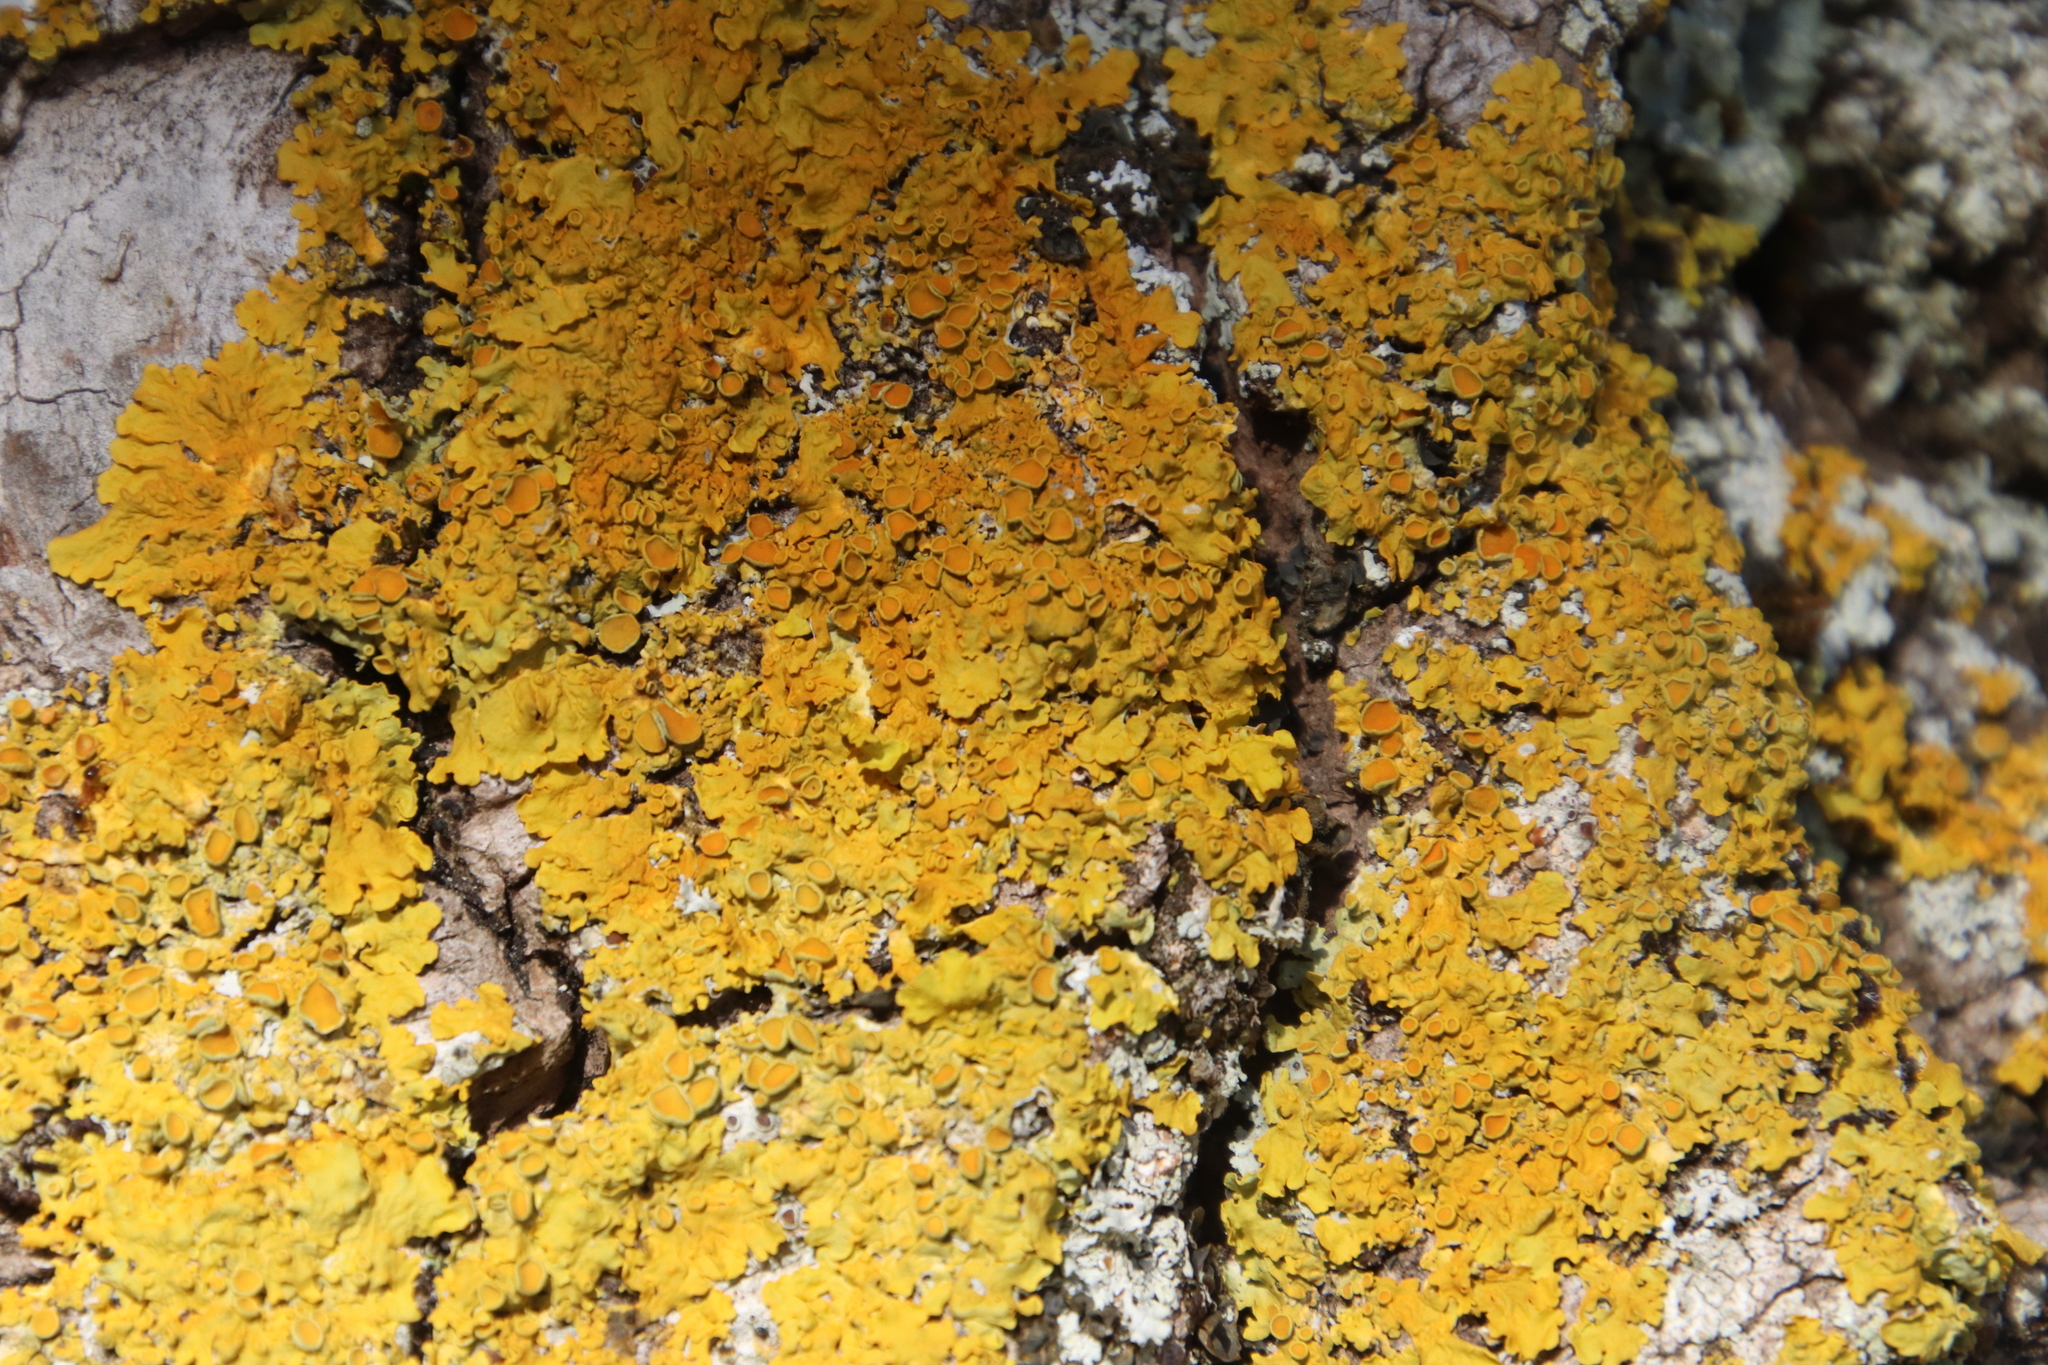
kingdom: Fungi
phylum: Ascomycota
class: Lecanoromycetes
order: Teloschistales
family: Teloschistaceae
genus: Xanthoria
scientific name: Xanthoria parietina
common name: Common orange lichen
